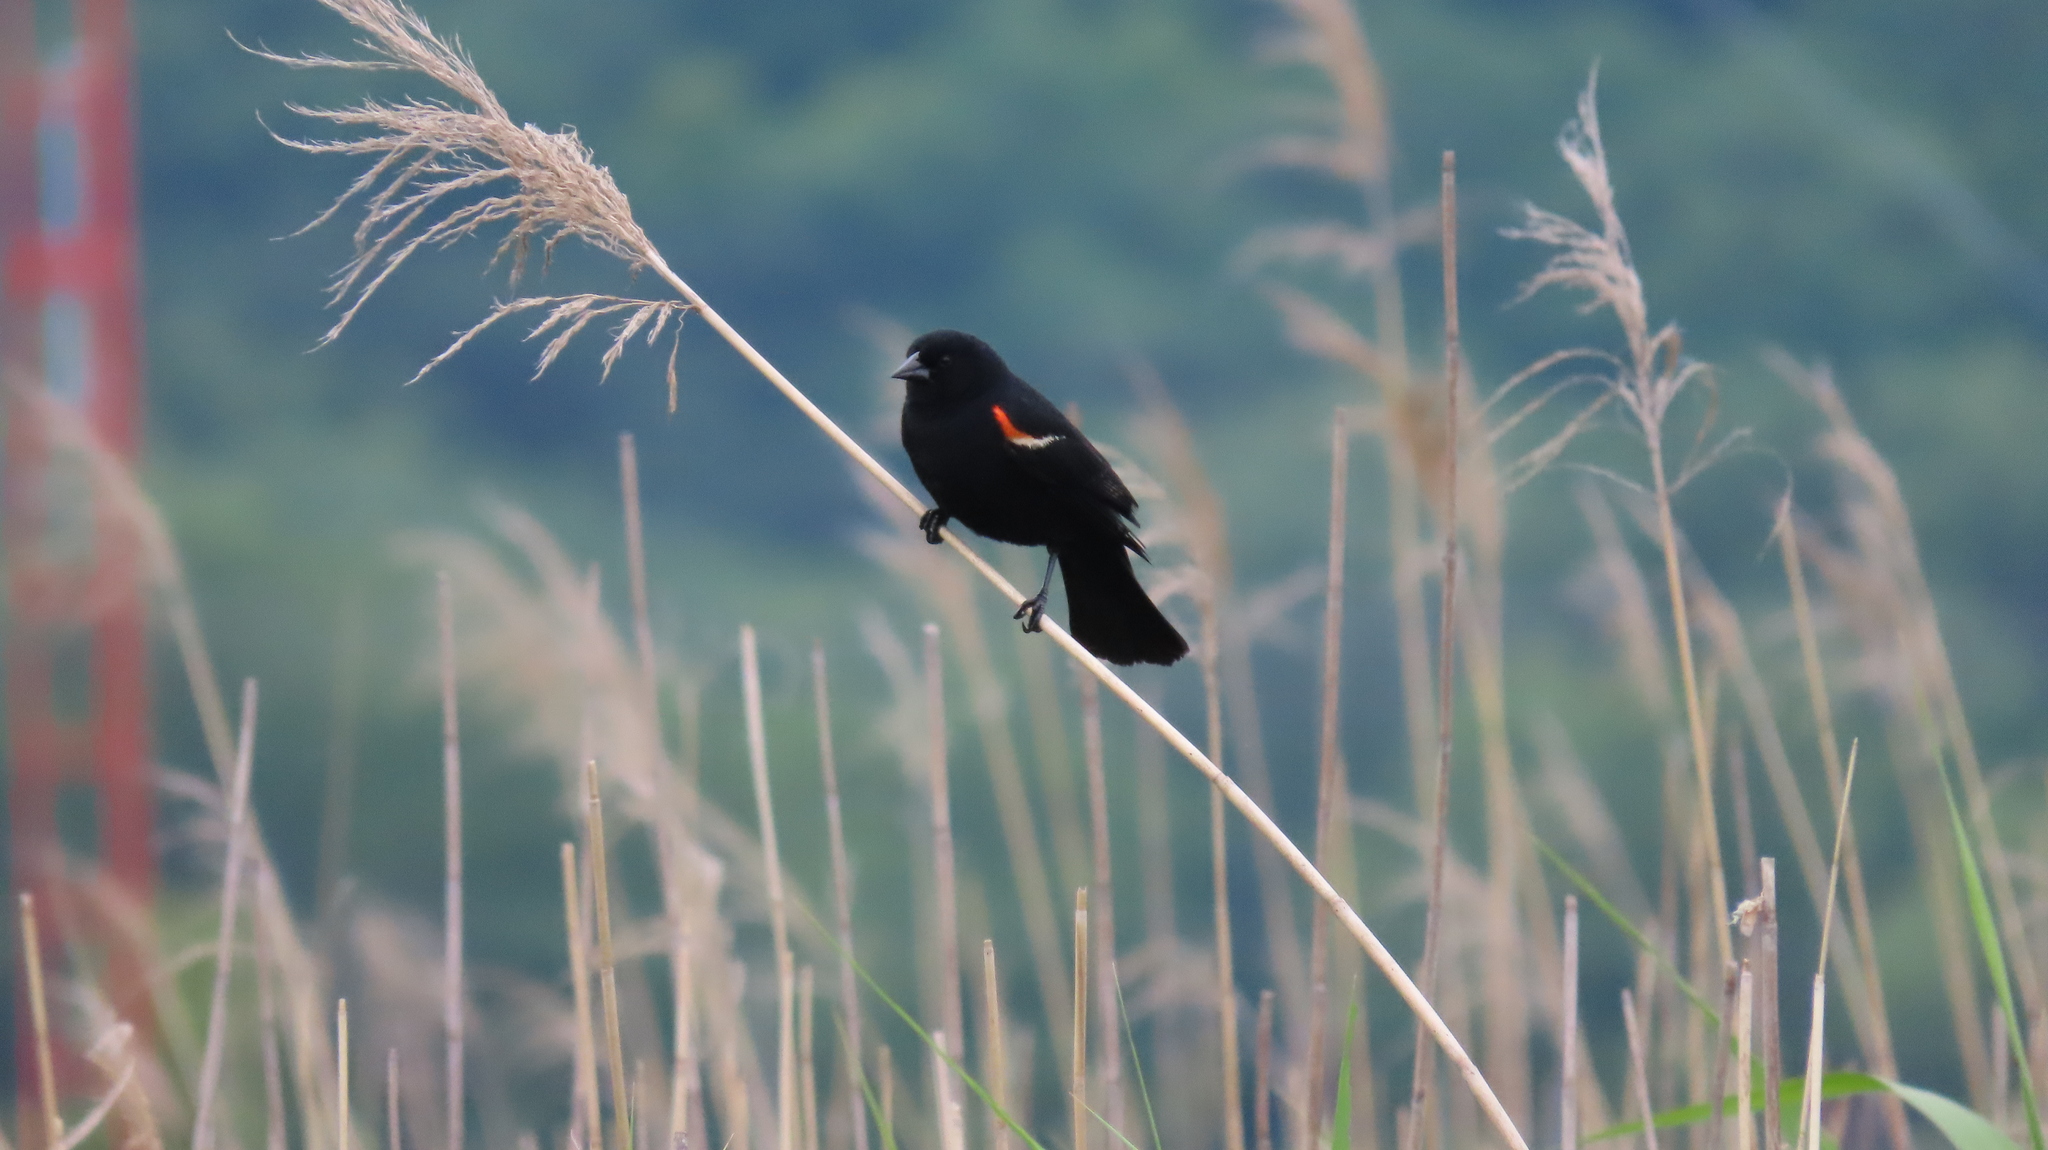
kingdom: Animalia
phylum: Chordata
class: Aves
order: Passeriformes
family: Icteridae
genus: Agelaius
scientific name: Agelaius phoeniceus
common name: Red-winged blackbird
